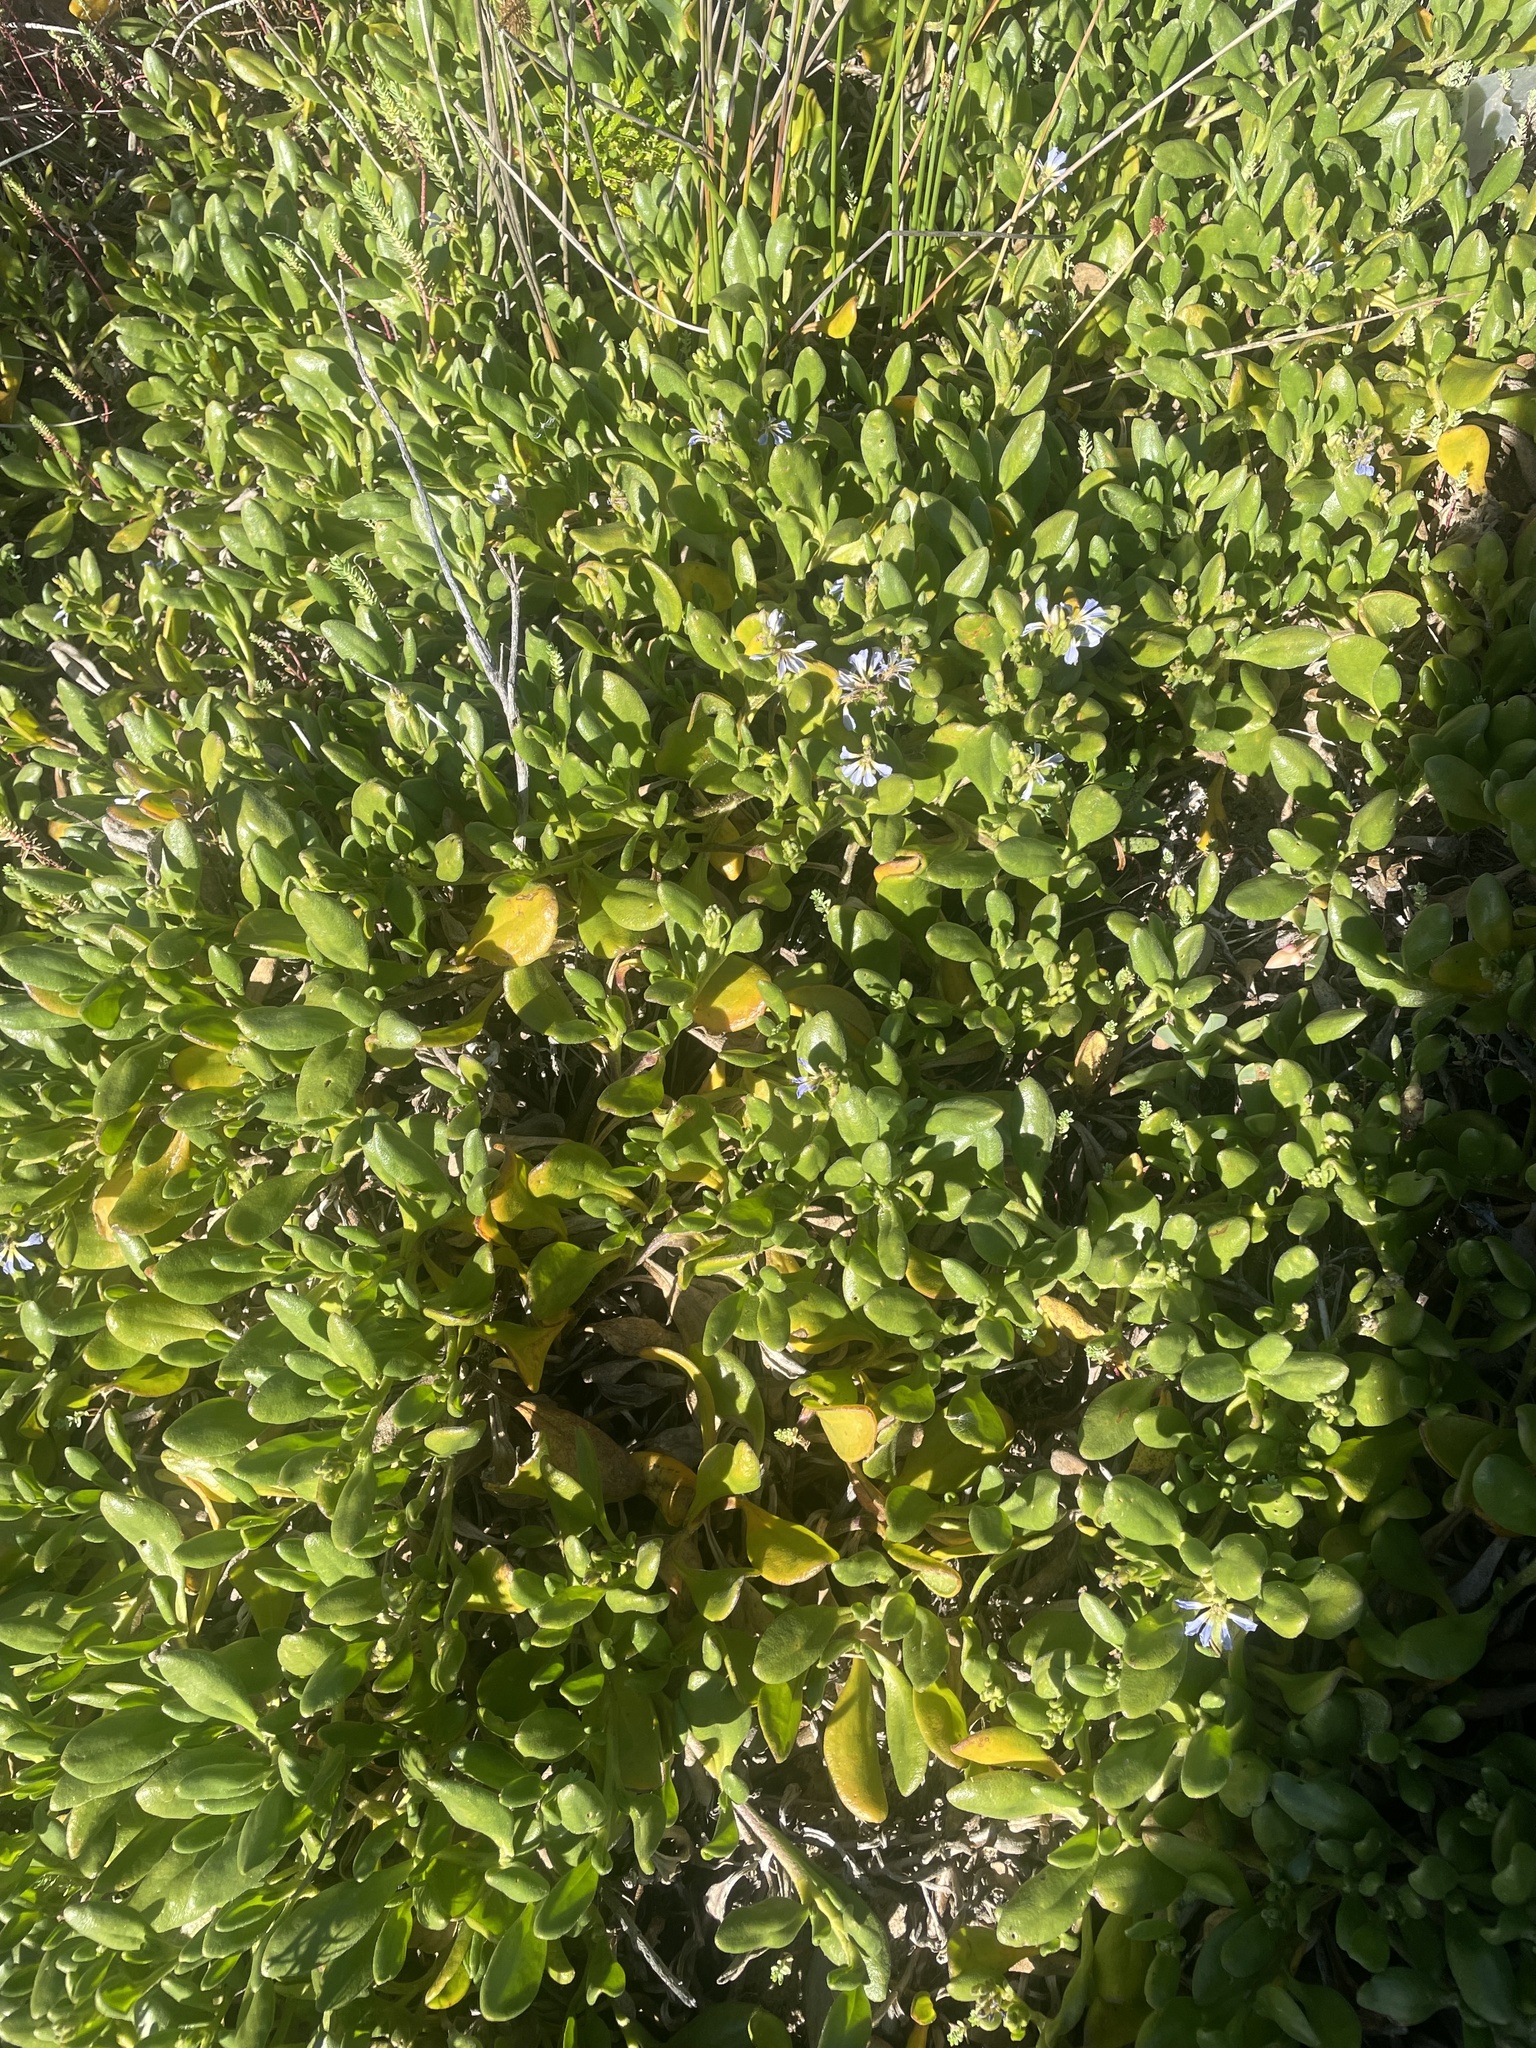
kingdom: Plantae
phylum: Tracheophyta
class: Magnoliopsida
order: Asterales
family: Goodeniaceae
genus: Scaevola
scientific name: Scaevola calendulacea
